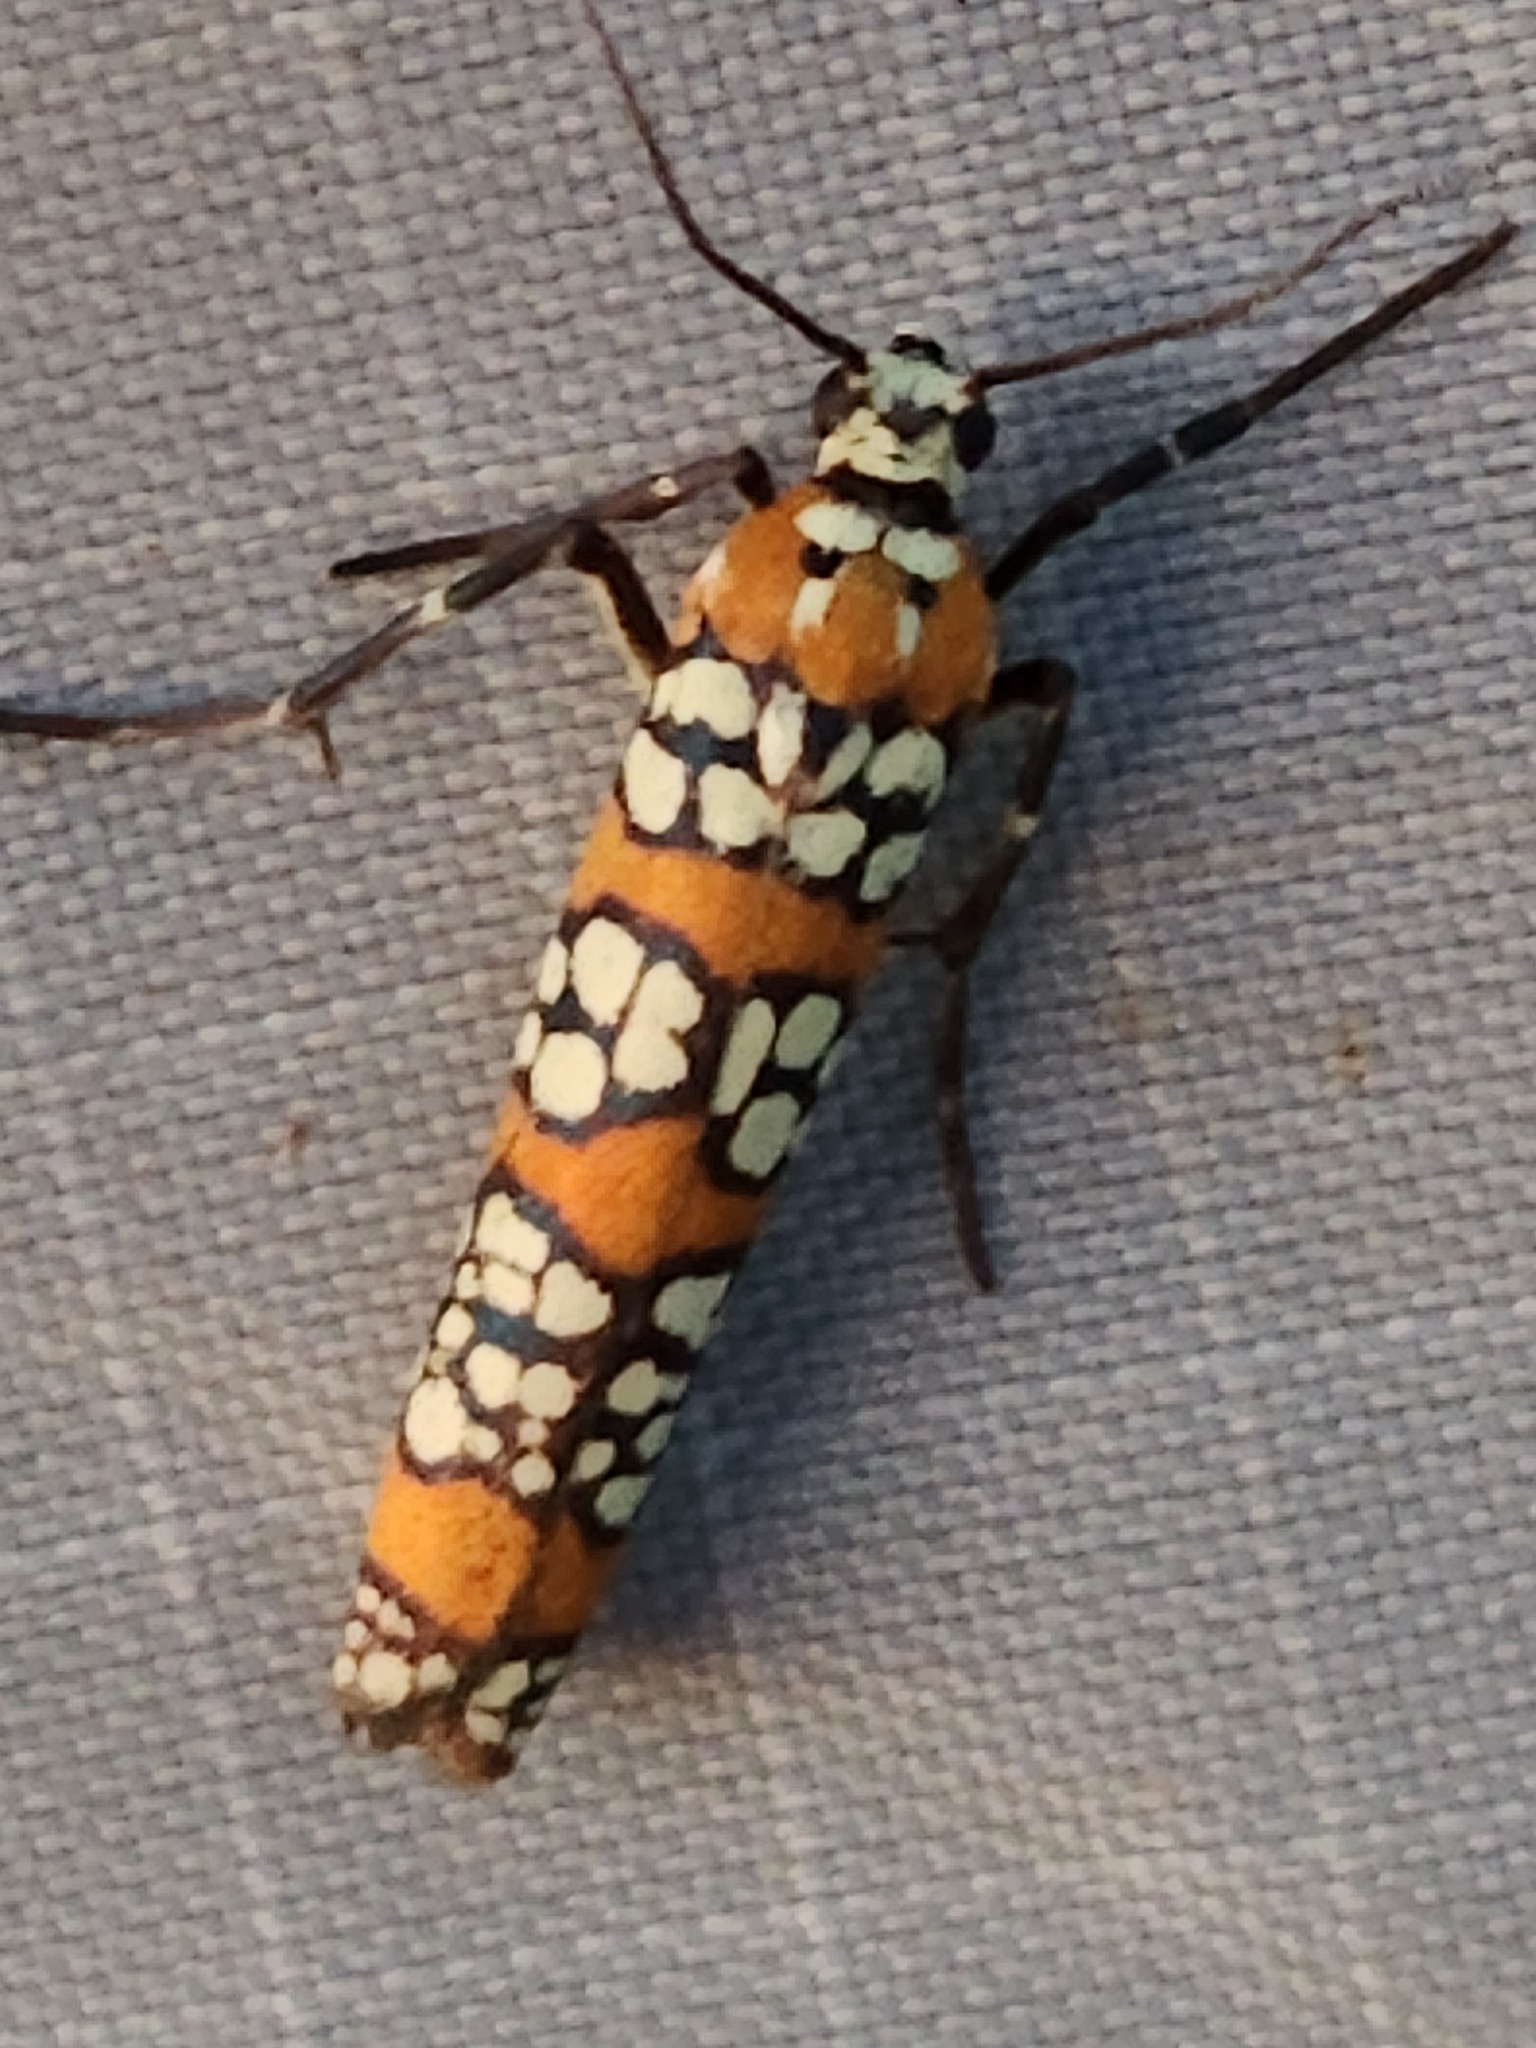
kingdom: Animalia
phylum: Arthropoda
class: Insecta
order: Lepidoptera
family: Attevidae
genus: Atteva
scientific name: Atteva punctella
